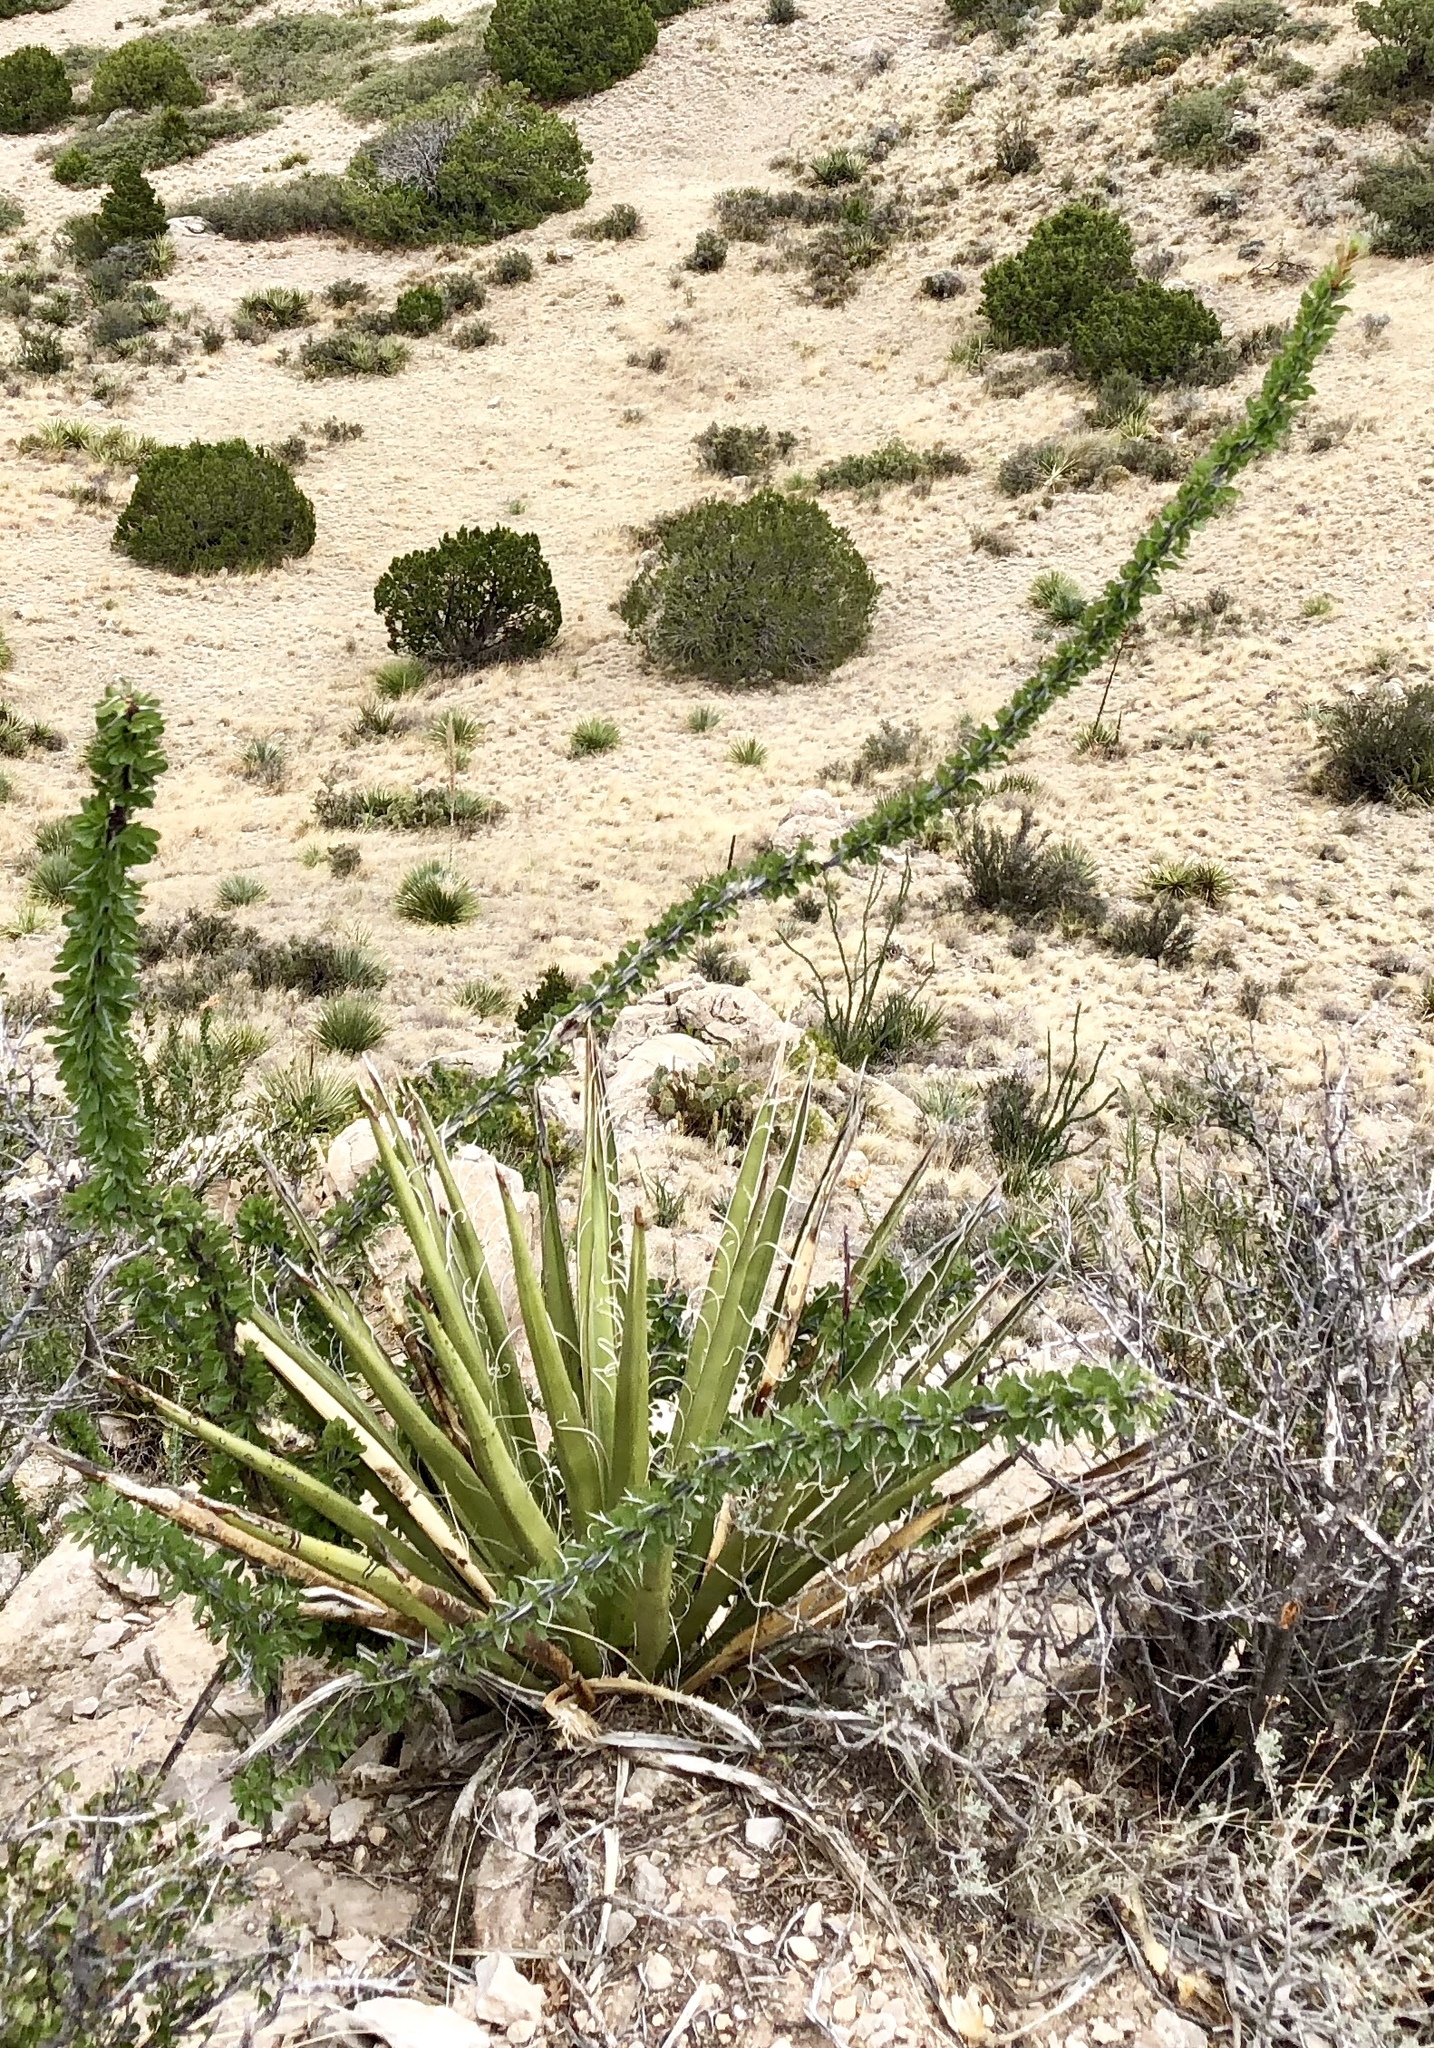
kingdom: Plantae
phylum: Tracheophyta
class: Liliopsida
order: Asparagales
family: Asparagaceae
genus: Yucca
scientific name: Yucca baccata
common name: Banana yucca
